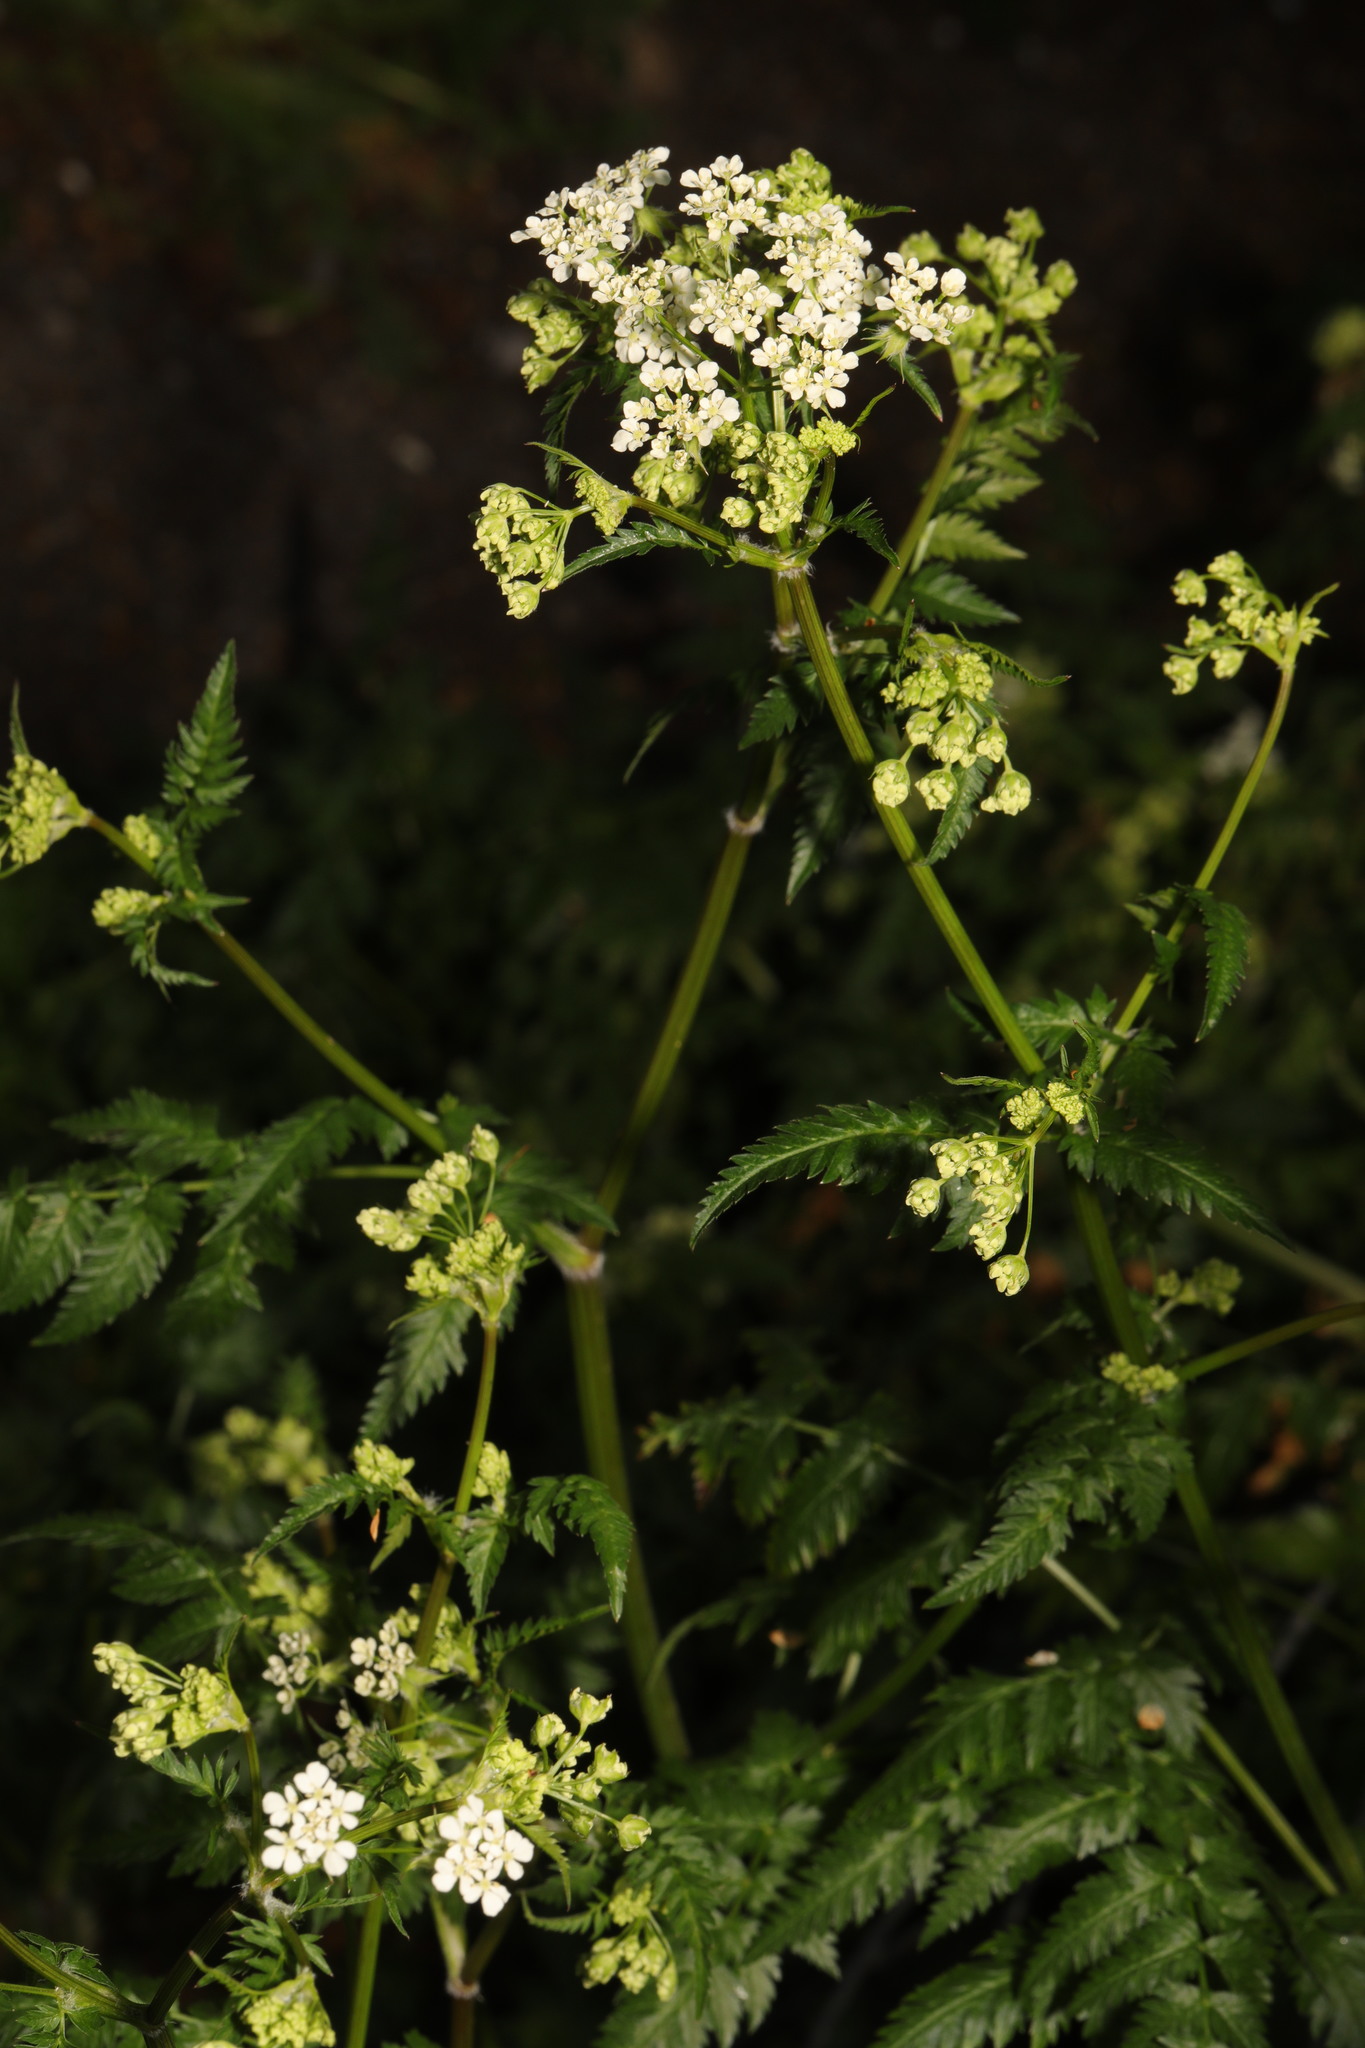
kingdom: Plantae
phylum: Tracheophyta
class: Magnoliopsida
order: Apiales
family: Apiaceae
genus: Anthriscus
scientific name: Anthriscus sylvestris
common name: Cow parsley
